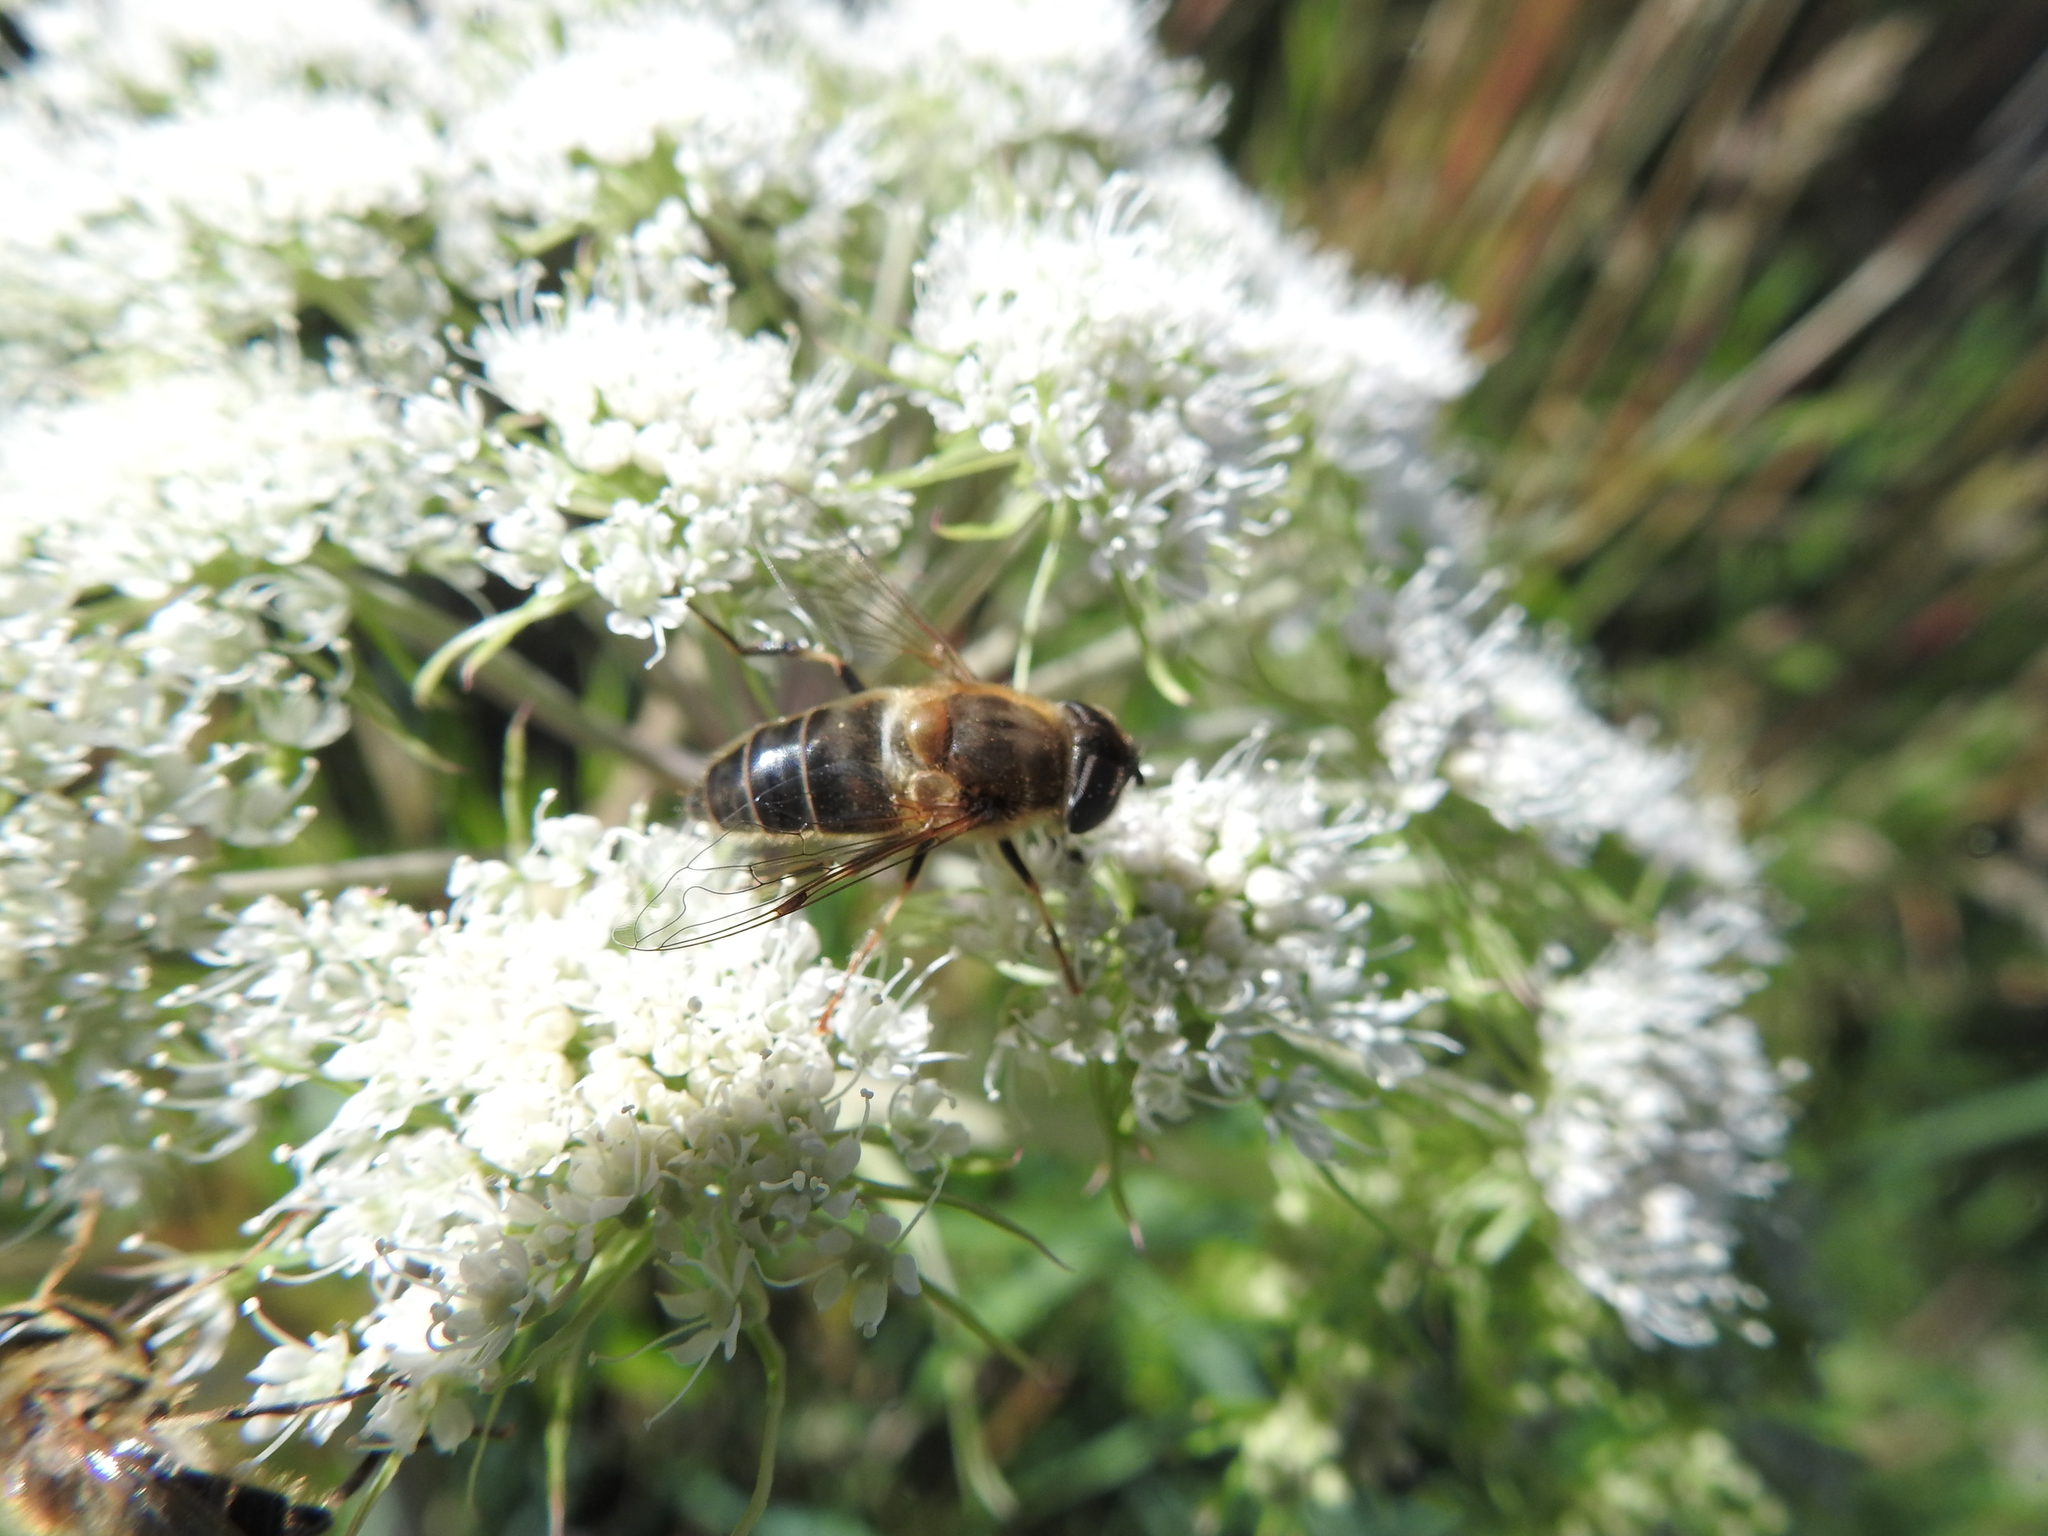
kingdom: Animalia
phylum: Arthropoda
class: Insecta
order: Diptera
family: Syrphidae
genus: Eristalis
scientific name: Eristalis pertinax
